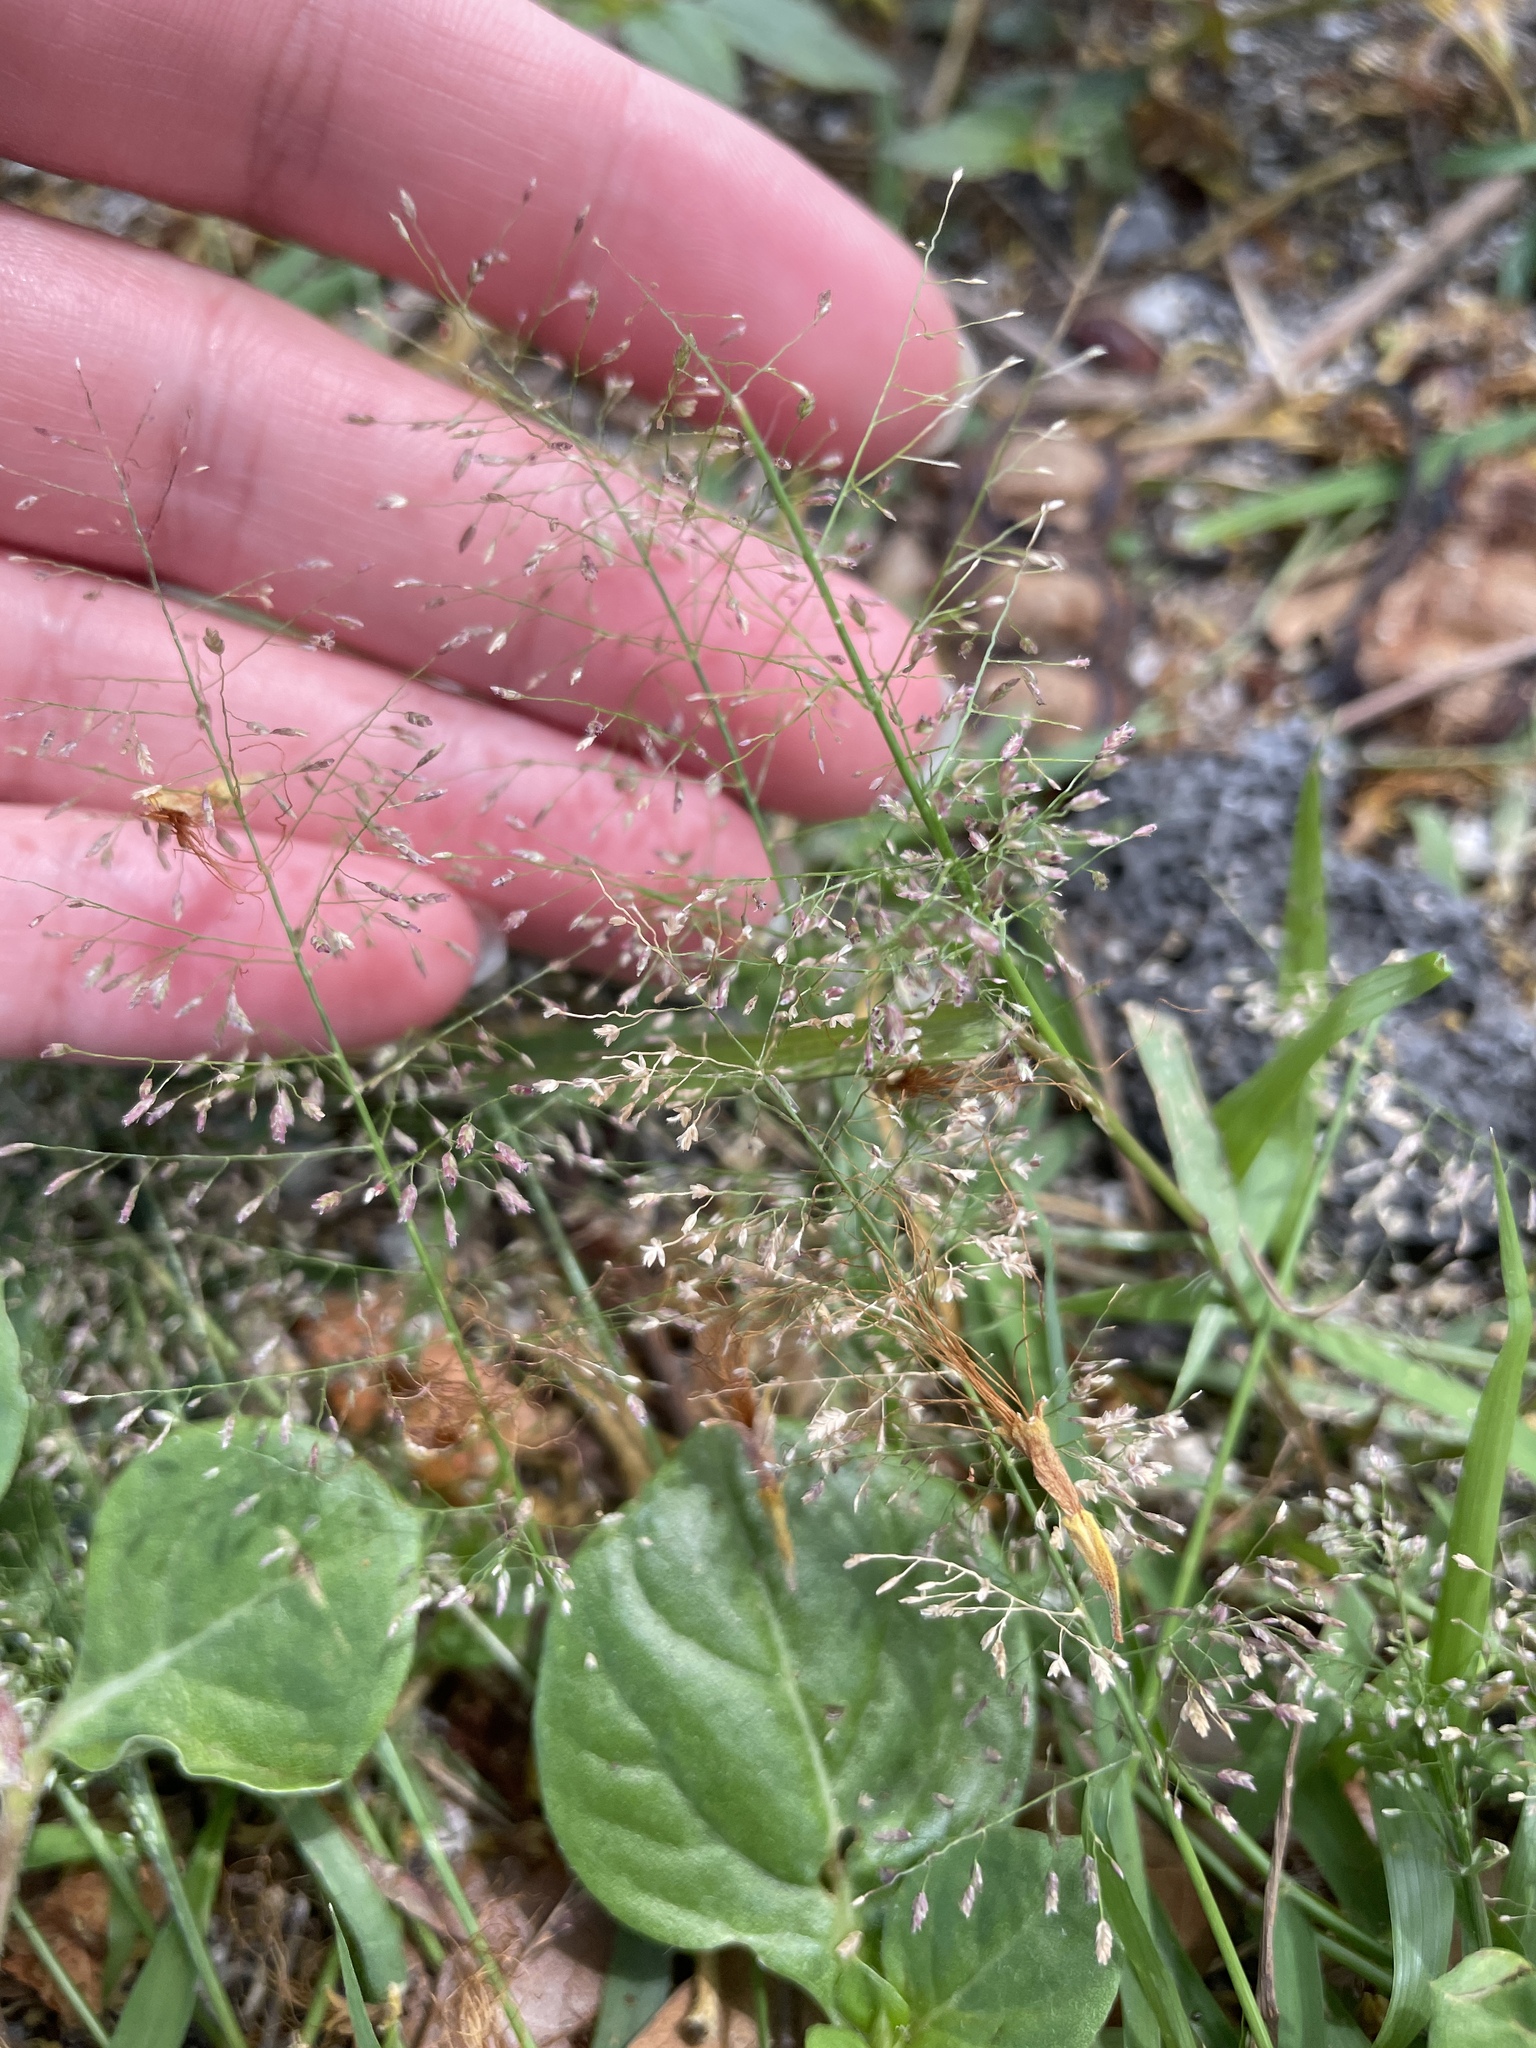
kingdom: Plantae
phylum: Tracheophyta
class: Liliopsida
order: Poales
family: Poaceae
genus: Eragrostis
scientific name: Eragrostis tenella
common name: Japanese lovegrass
